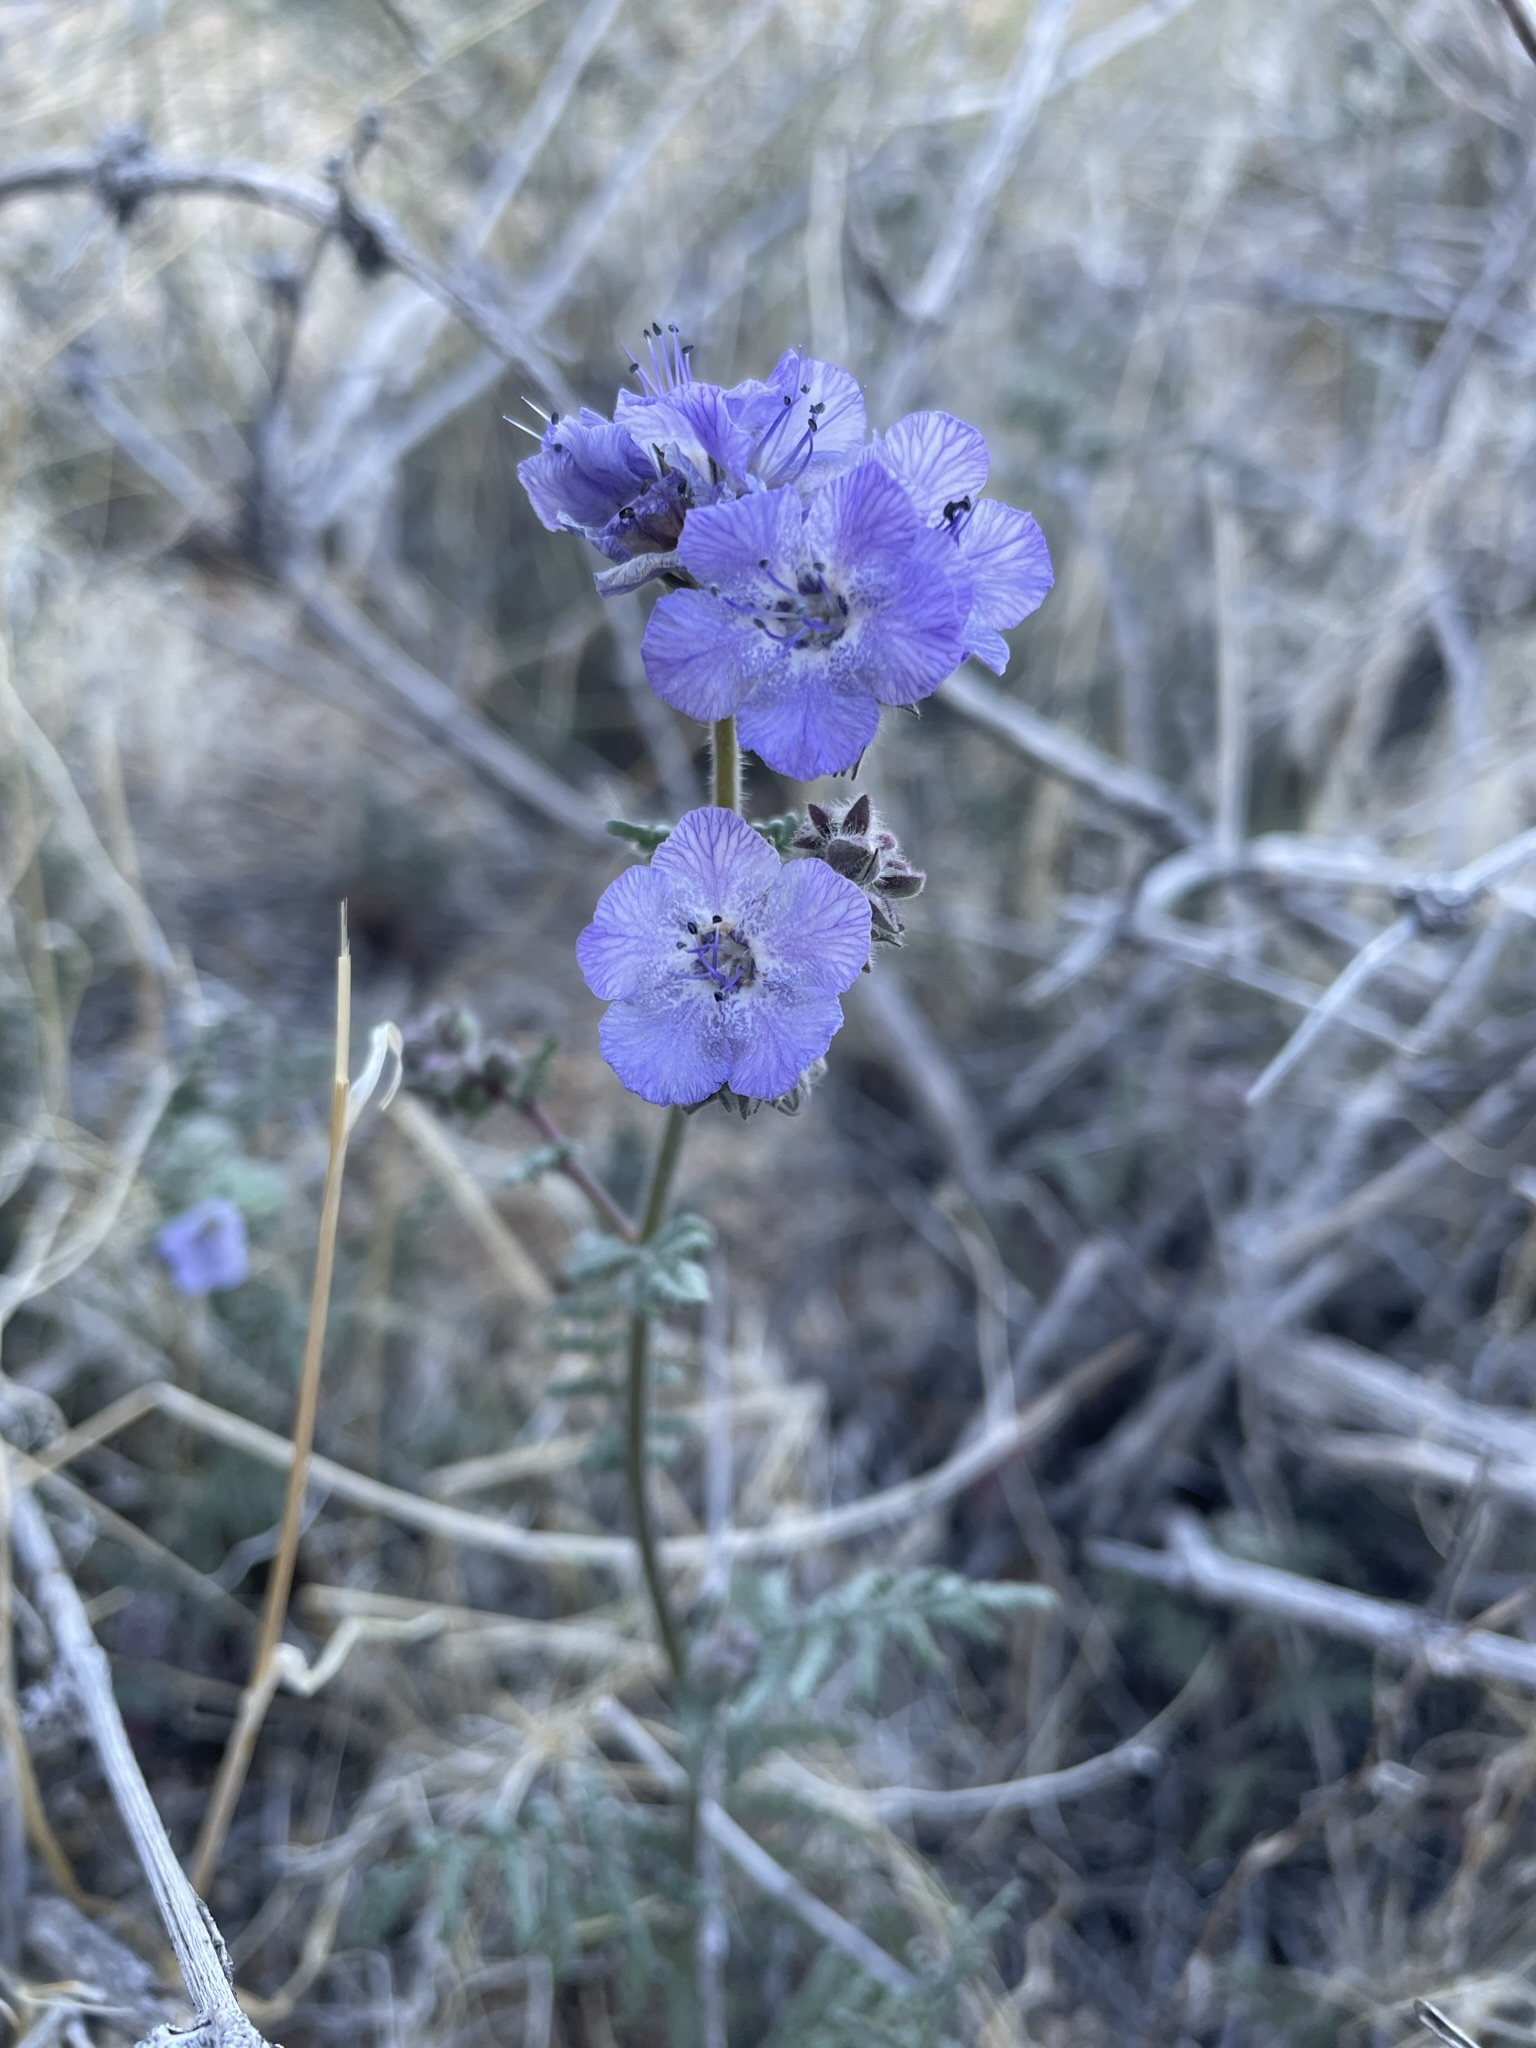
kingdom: Plantae
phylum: Tracheophyta
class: Magnoliopsida
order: Boraginales
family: Hydrophyllaceae
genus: Phacelia
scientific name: Phacelia distans
